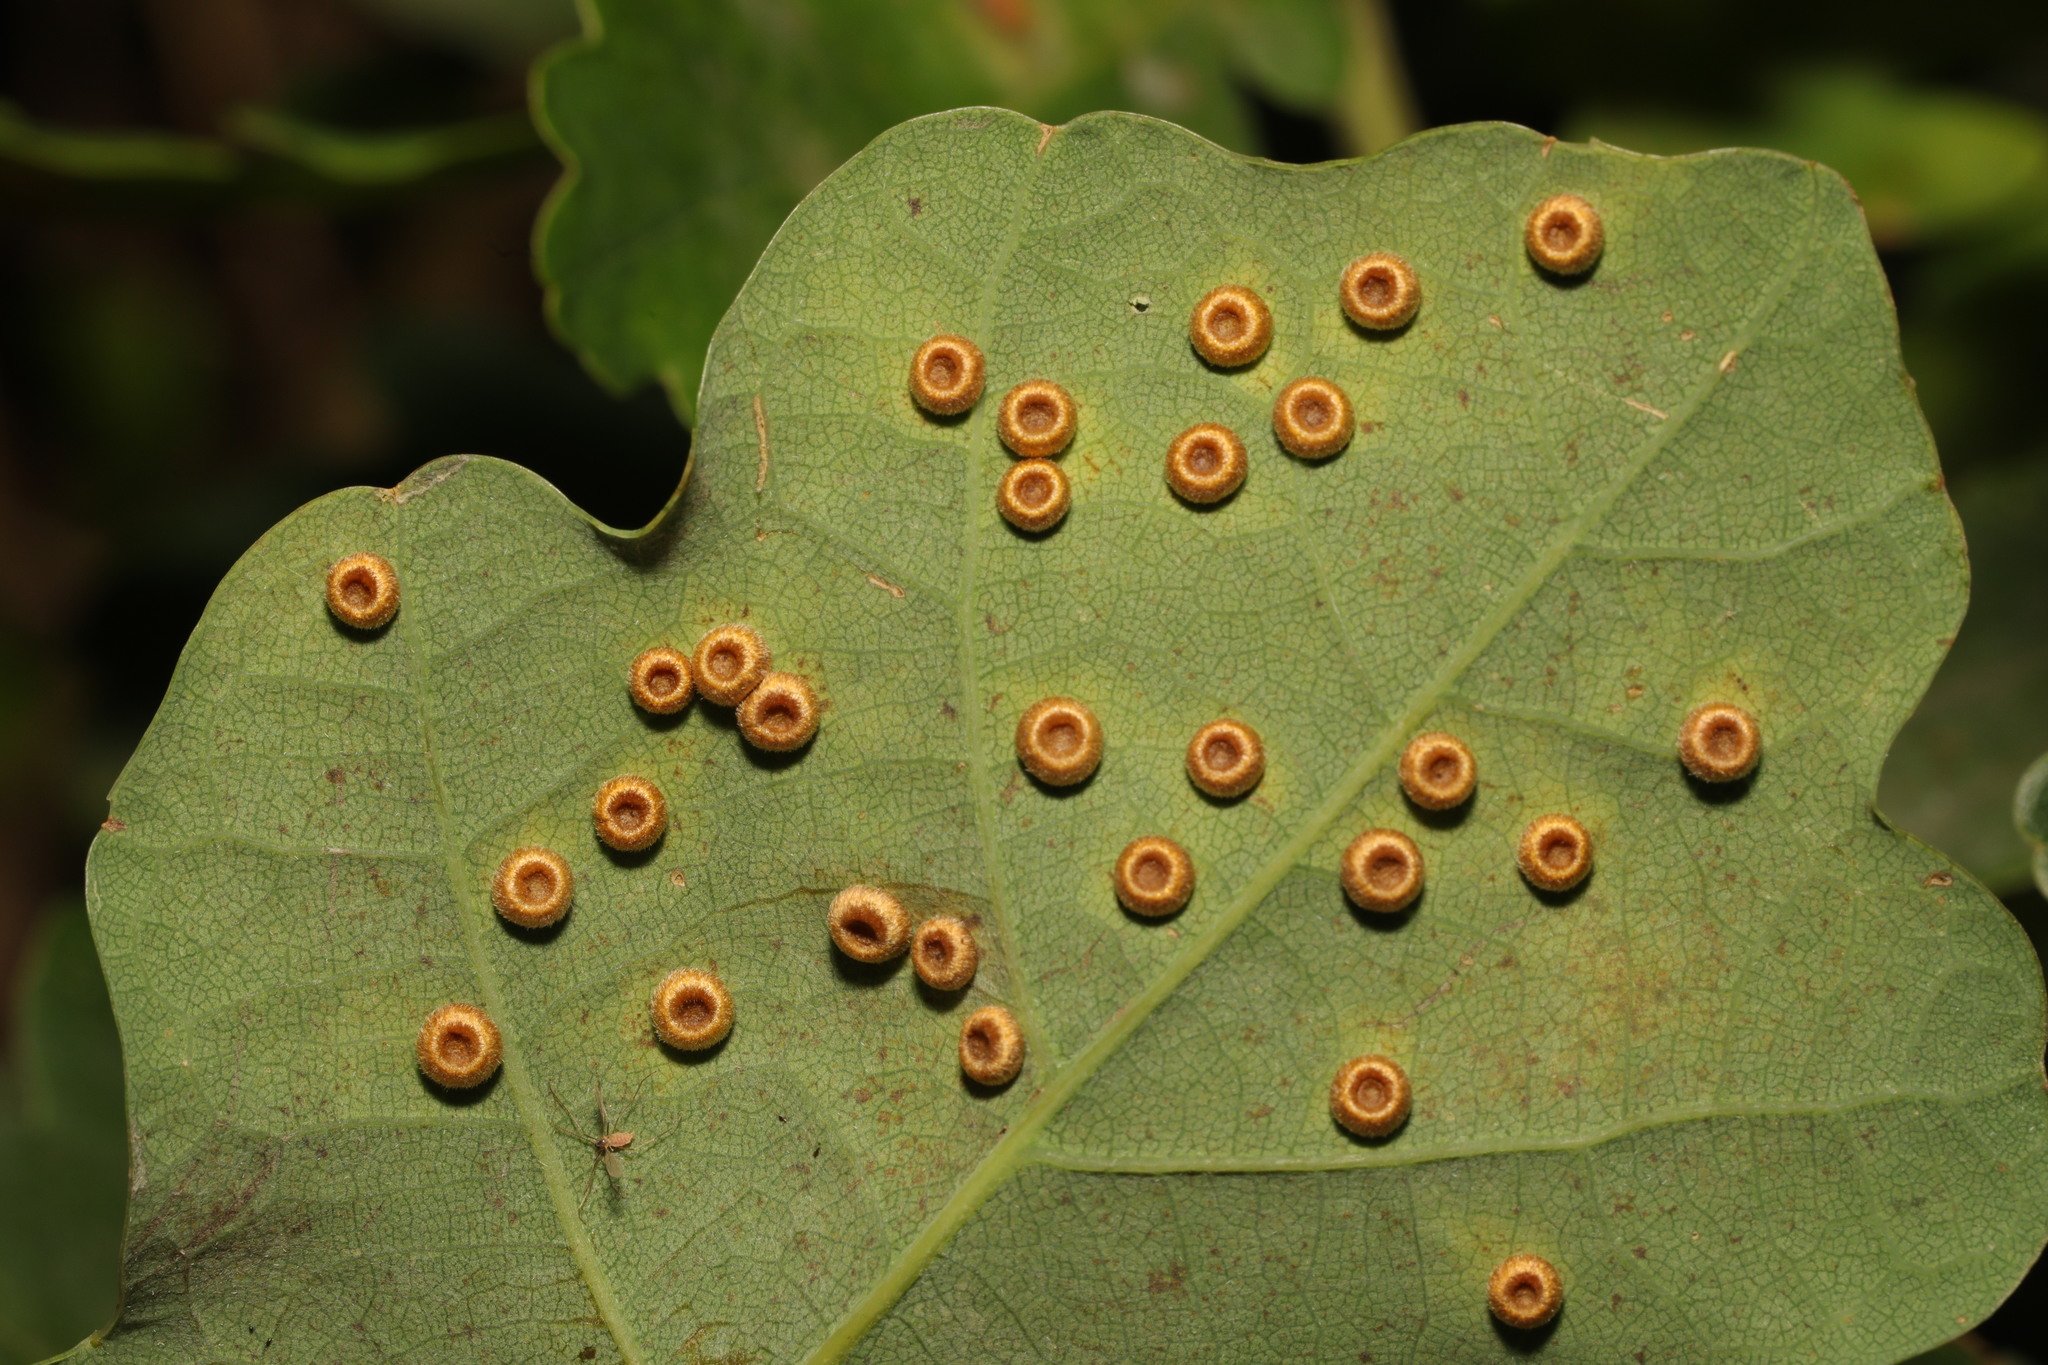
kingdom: Animalia
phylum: Arthropoda
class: Insecta
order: Hymenoptera
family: Cynipidae
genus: Neuroterus
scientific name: Neuroterus numismalis
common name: Silk-button spangle gall
